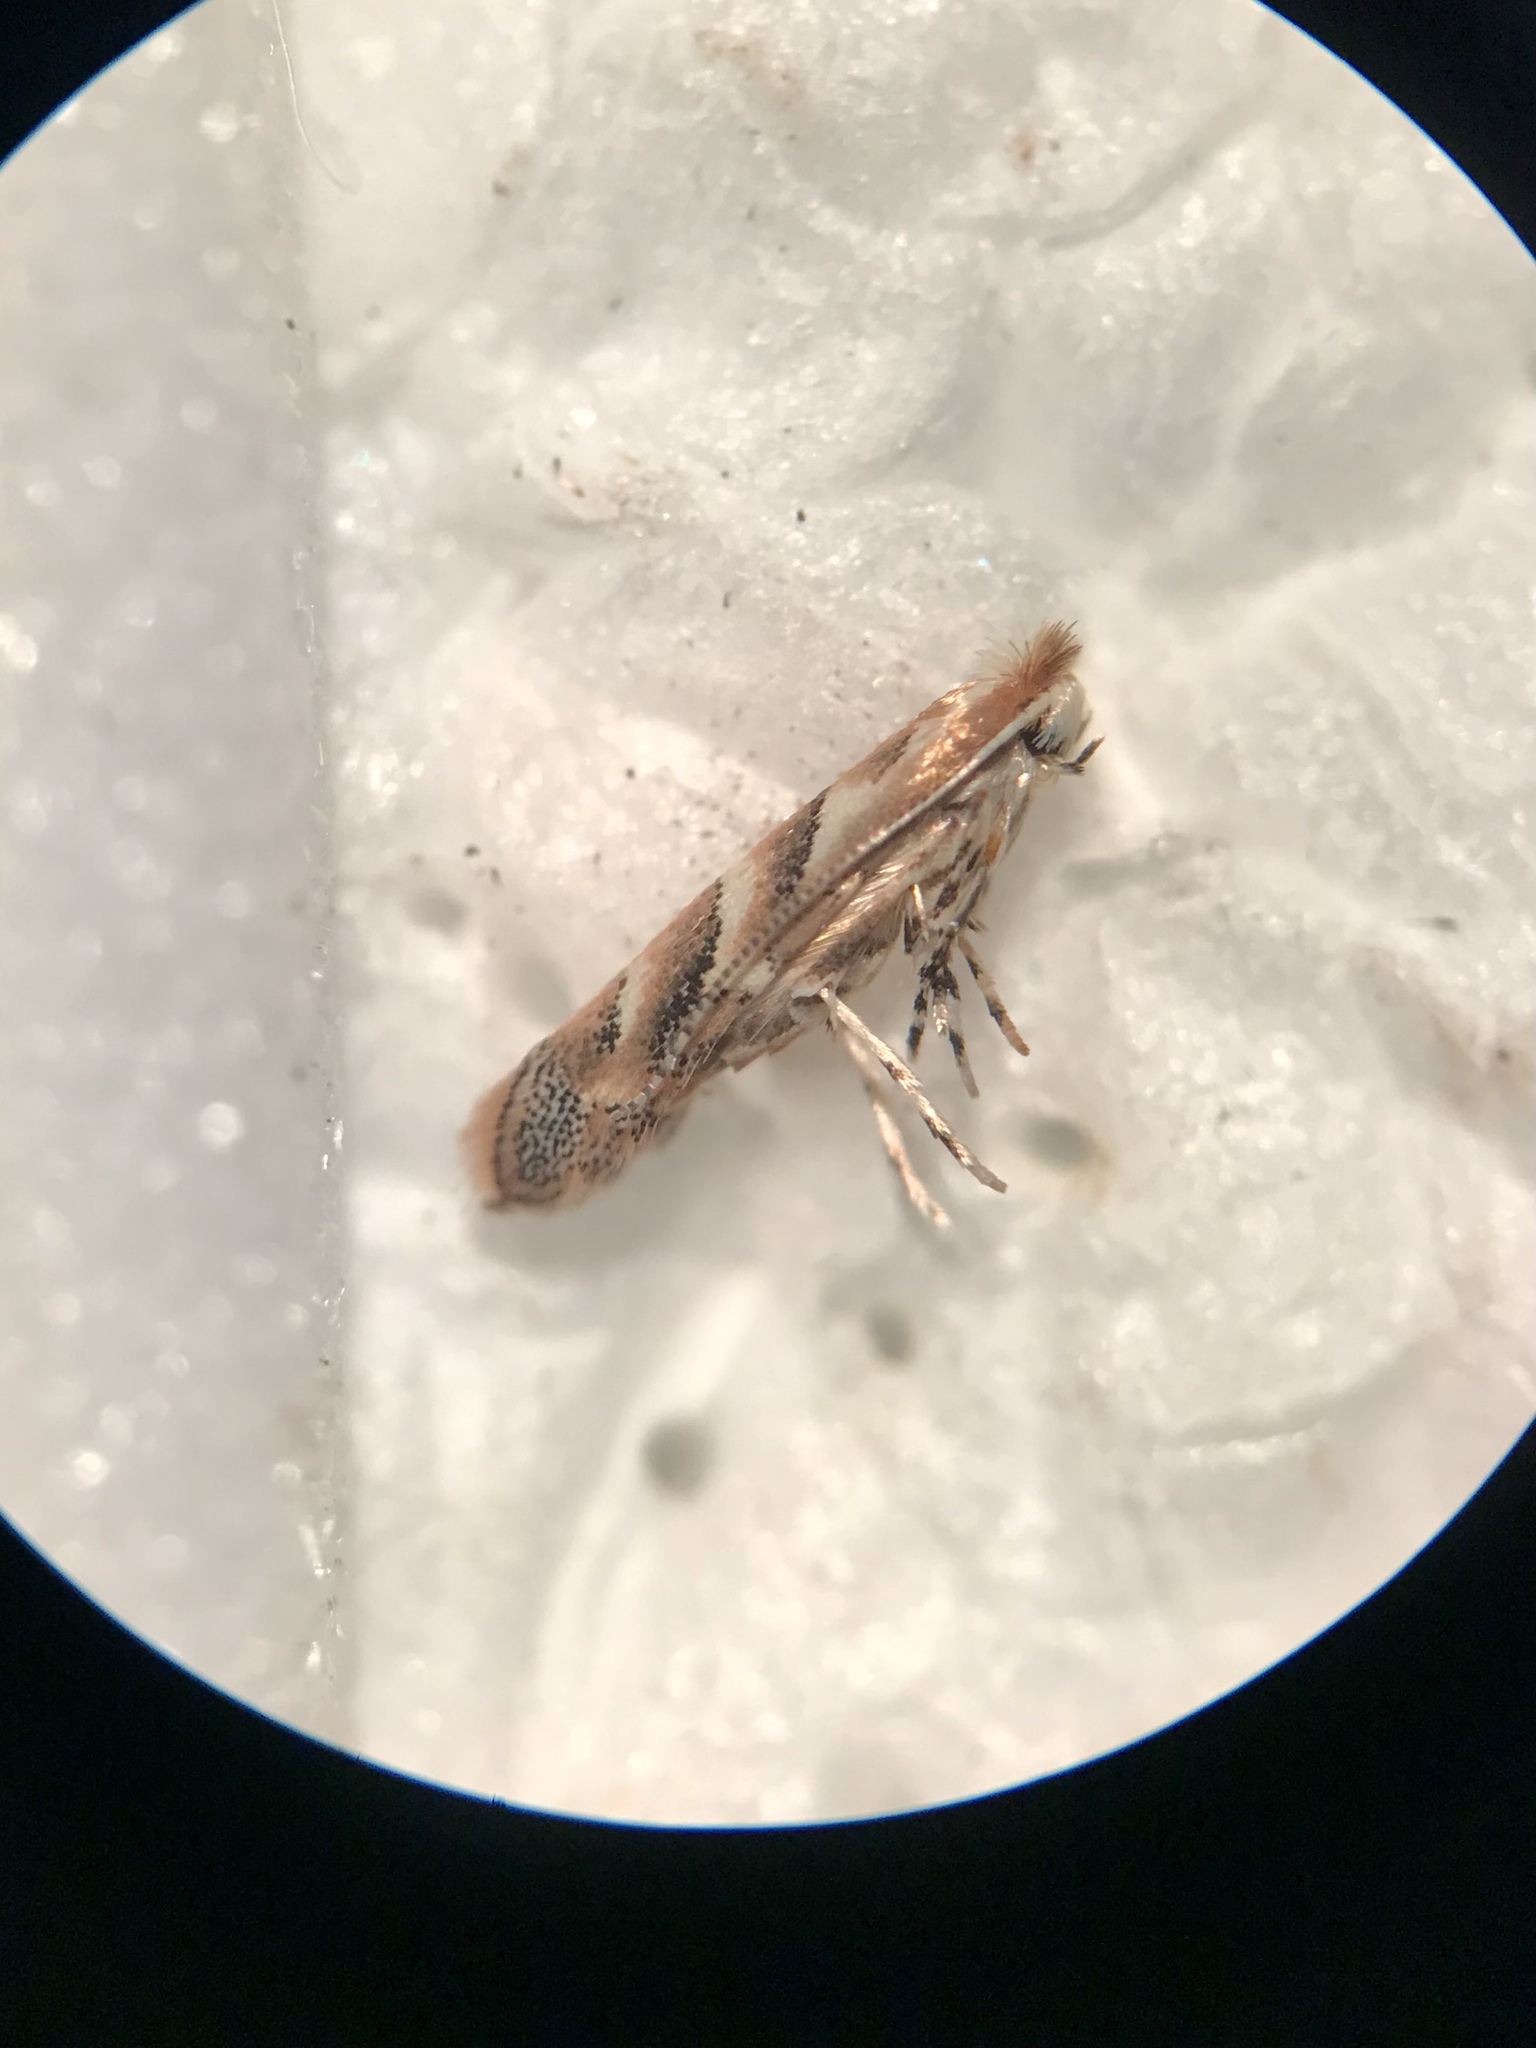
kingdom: Animalia
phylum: Arthropoda
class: Insecta
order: Lepidoptera
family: Gracillariidae
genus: Cameraria
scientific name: Cameraria macrocarpella
